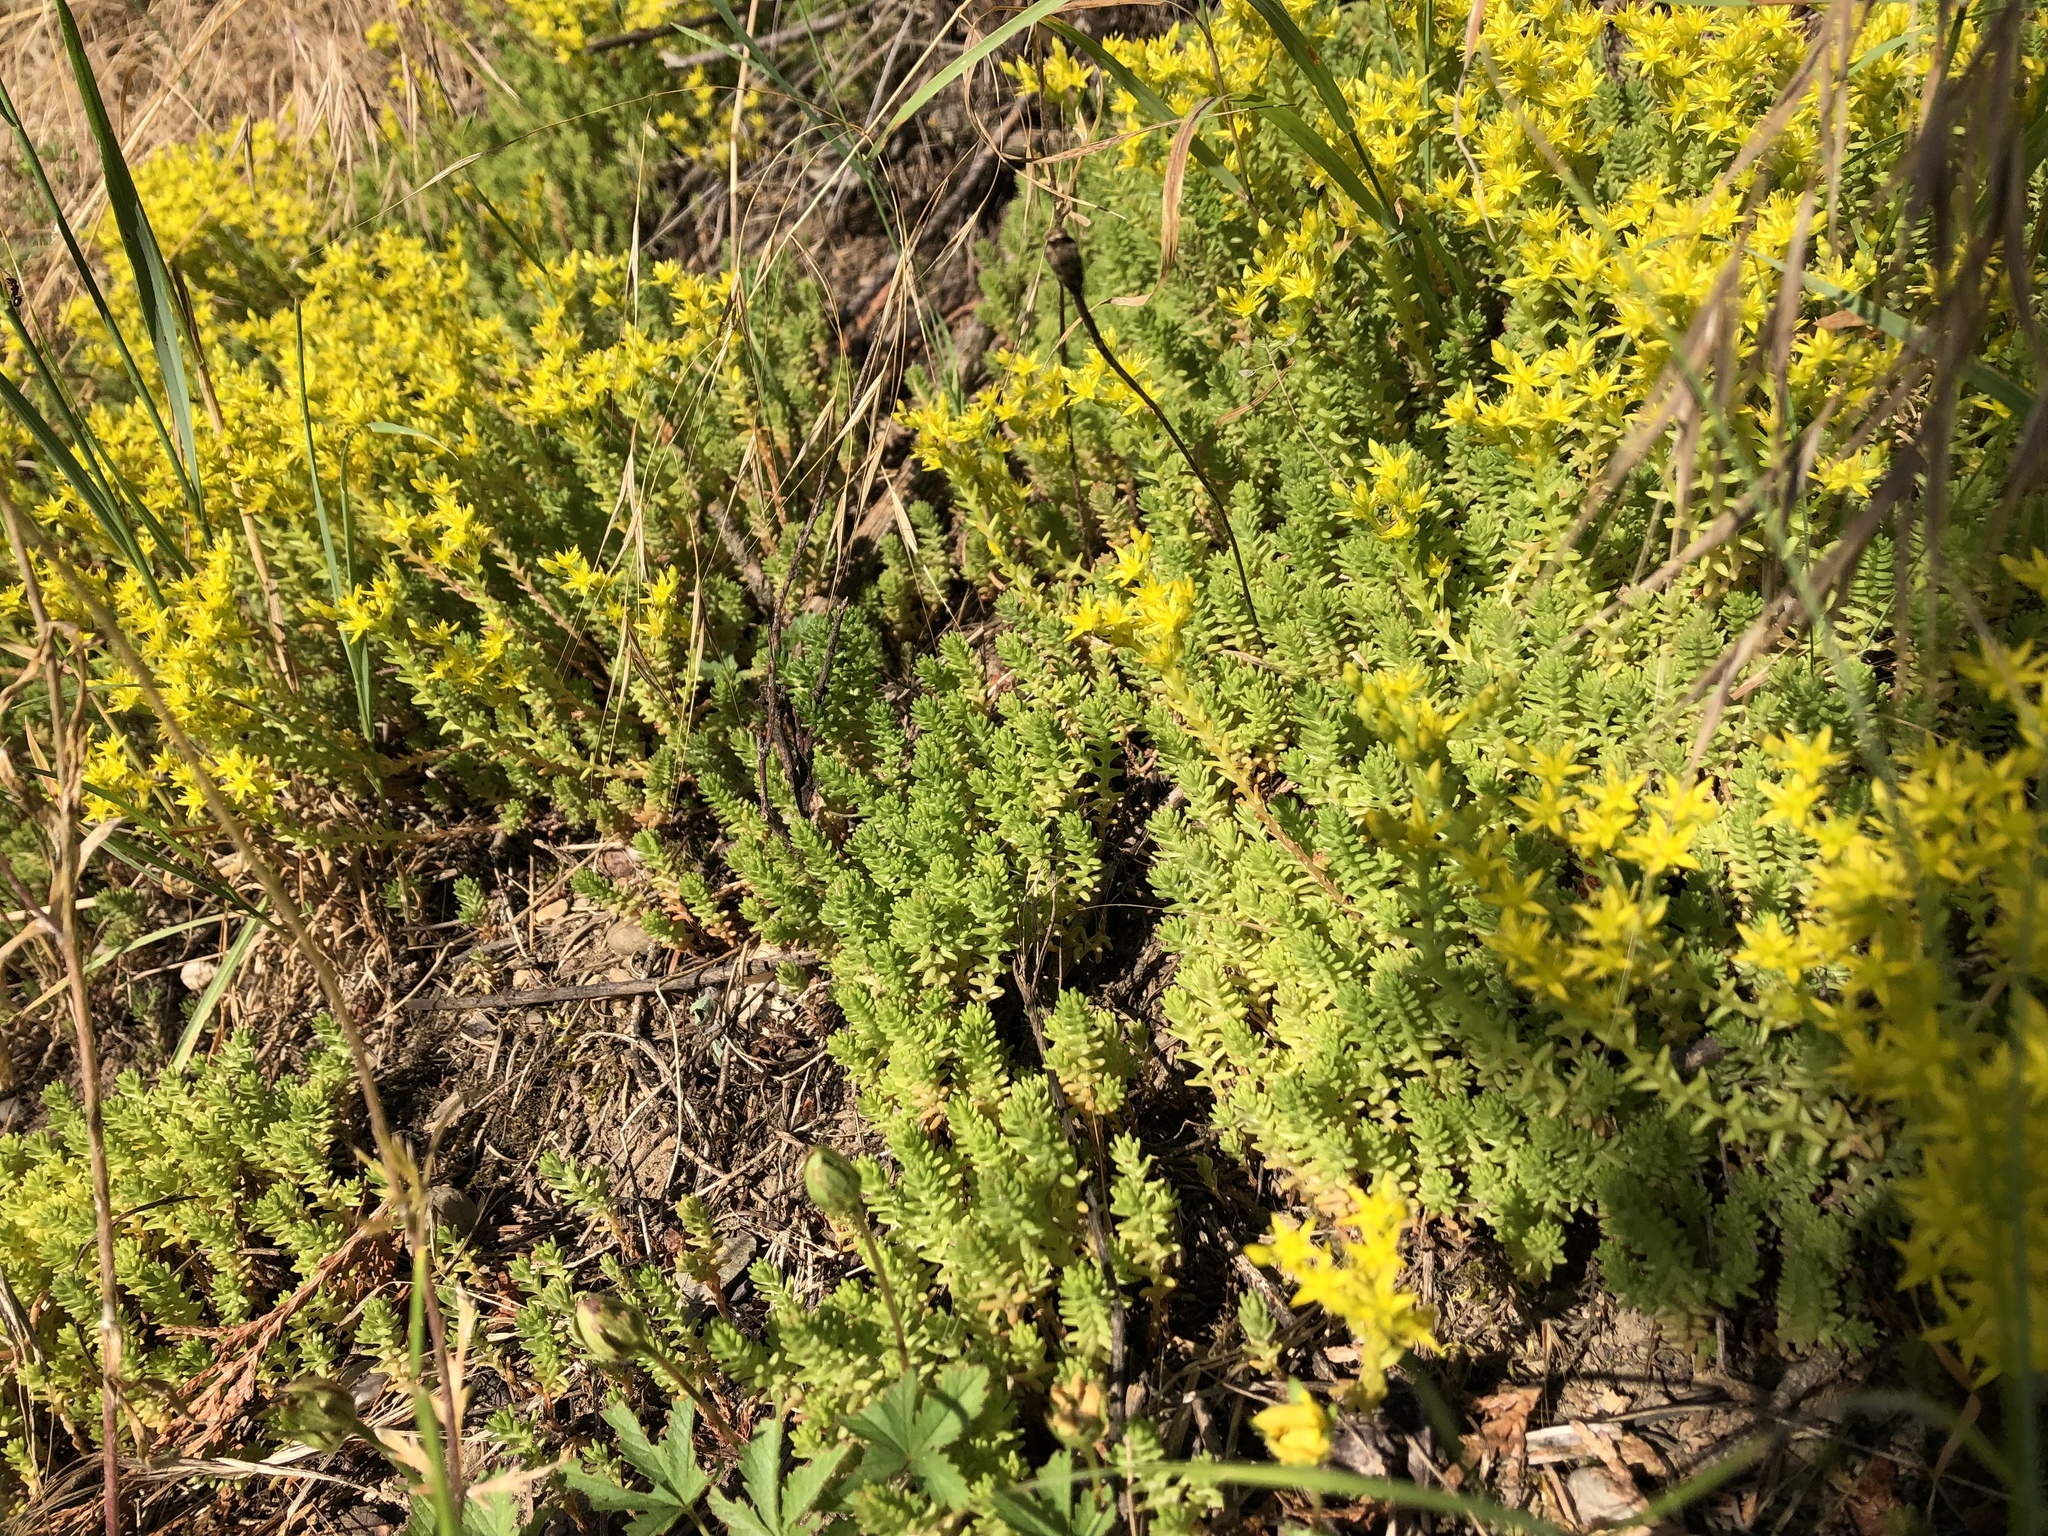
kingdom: Plantae
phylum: Tracheophyta
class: Magnoliopsida
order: Saxifragales
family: Crassulaceae
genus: Sedum
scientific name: Sedum sexangulare
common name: Tasteless stonecrop
